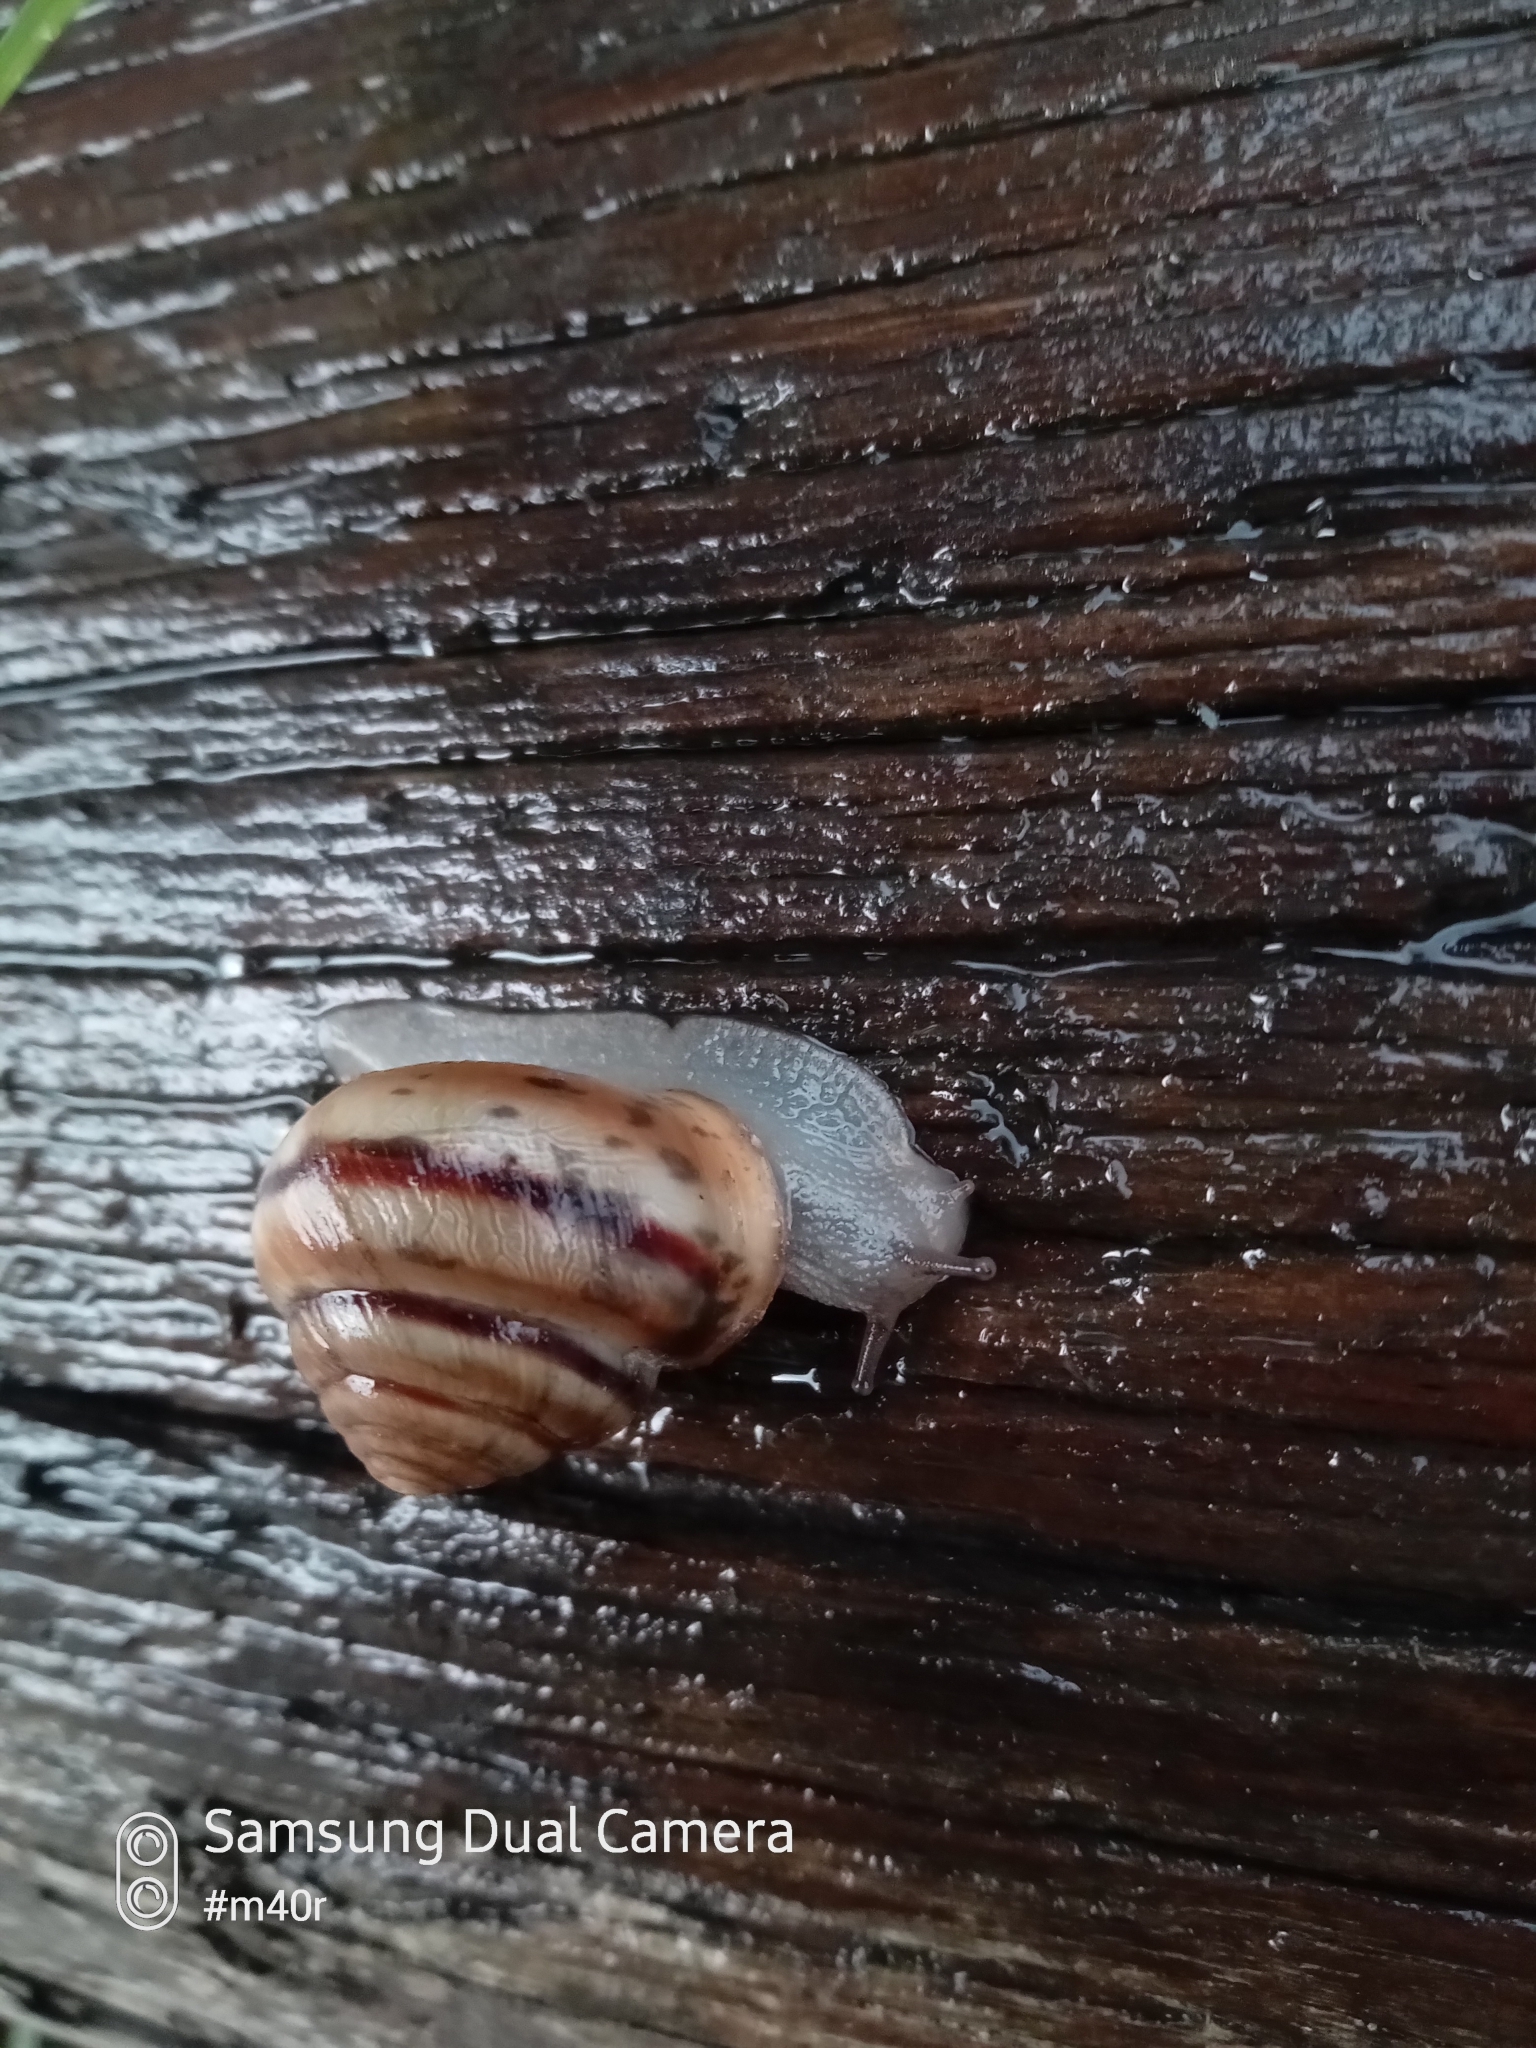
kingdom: Animalia
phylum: Mollusca
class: Gastropoda
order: Stylommatophora
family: Camaenidae
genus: Fruticicola
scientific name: Fruticicola lantzi
